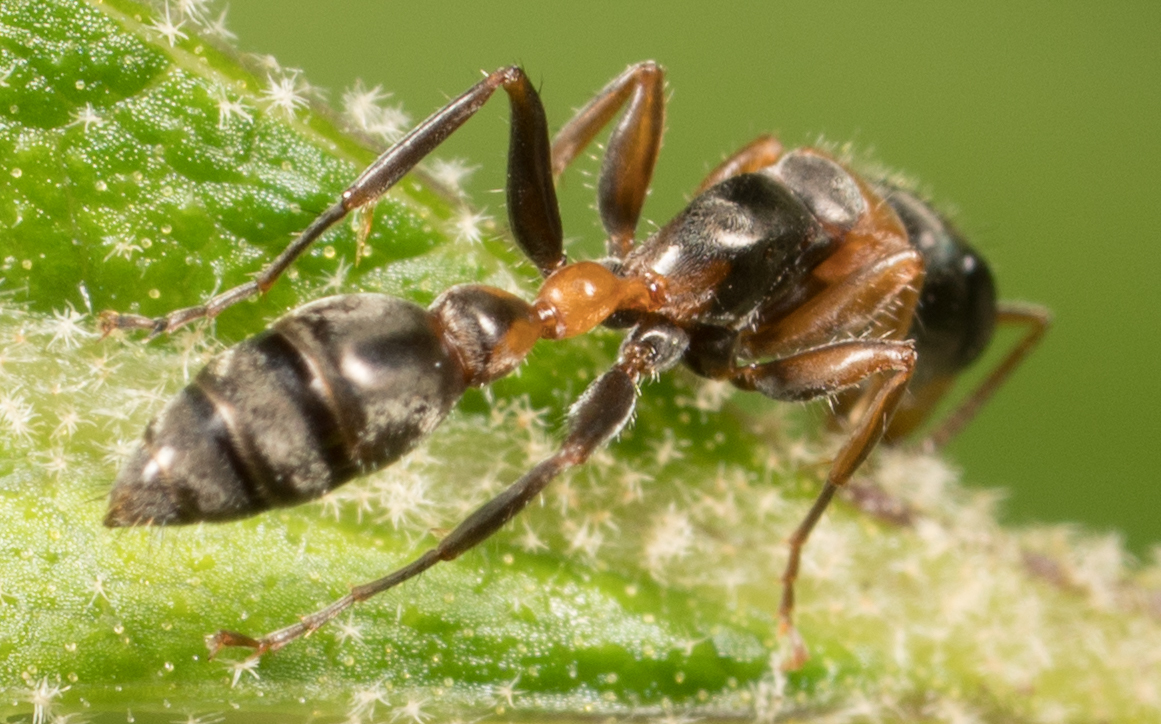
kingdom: Animalia
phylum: Arthropoda
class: Insecta
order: Hymenoptera
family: Formicidae
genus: Pseudomyrmex
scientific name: Pseudomyrmex gracilis
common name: Graceful twig ant
